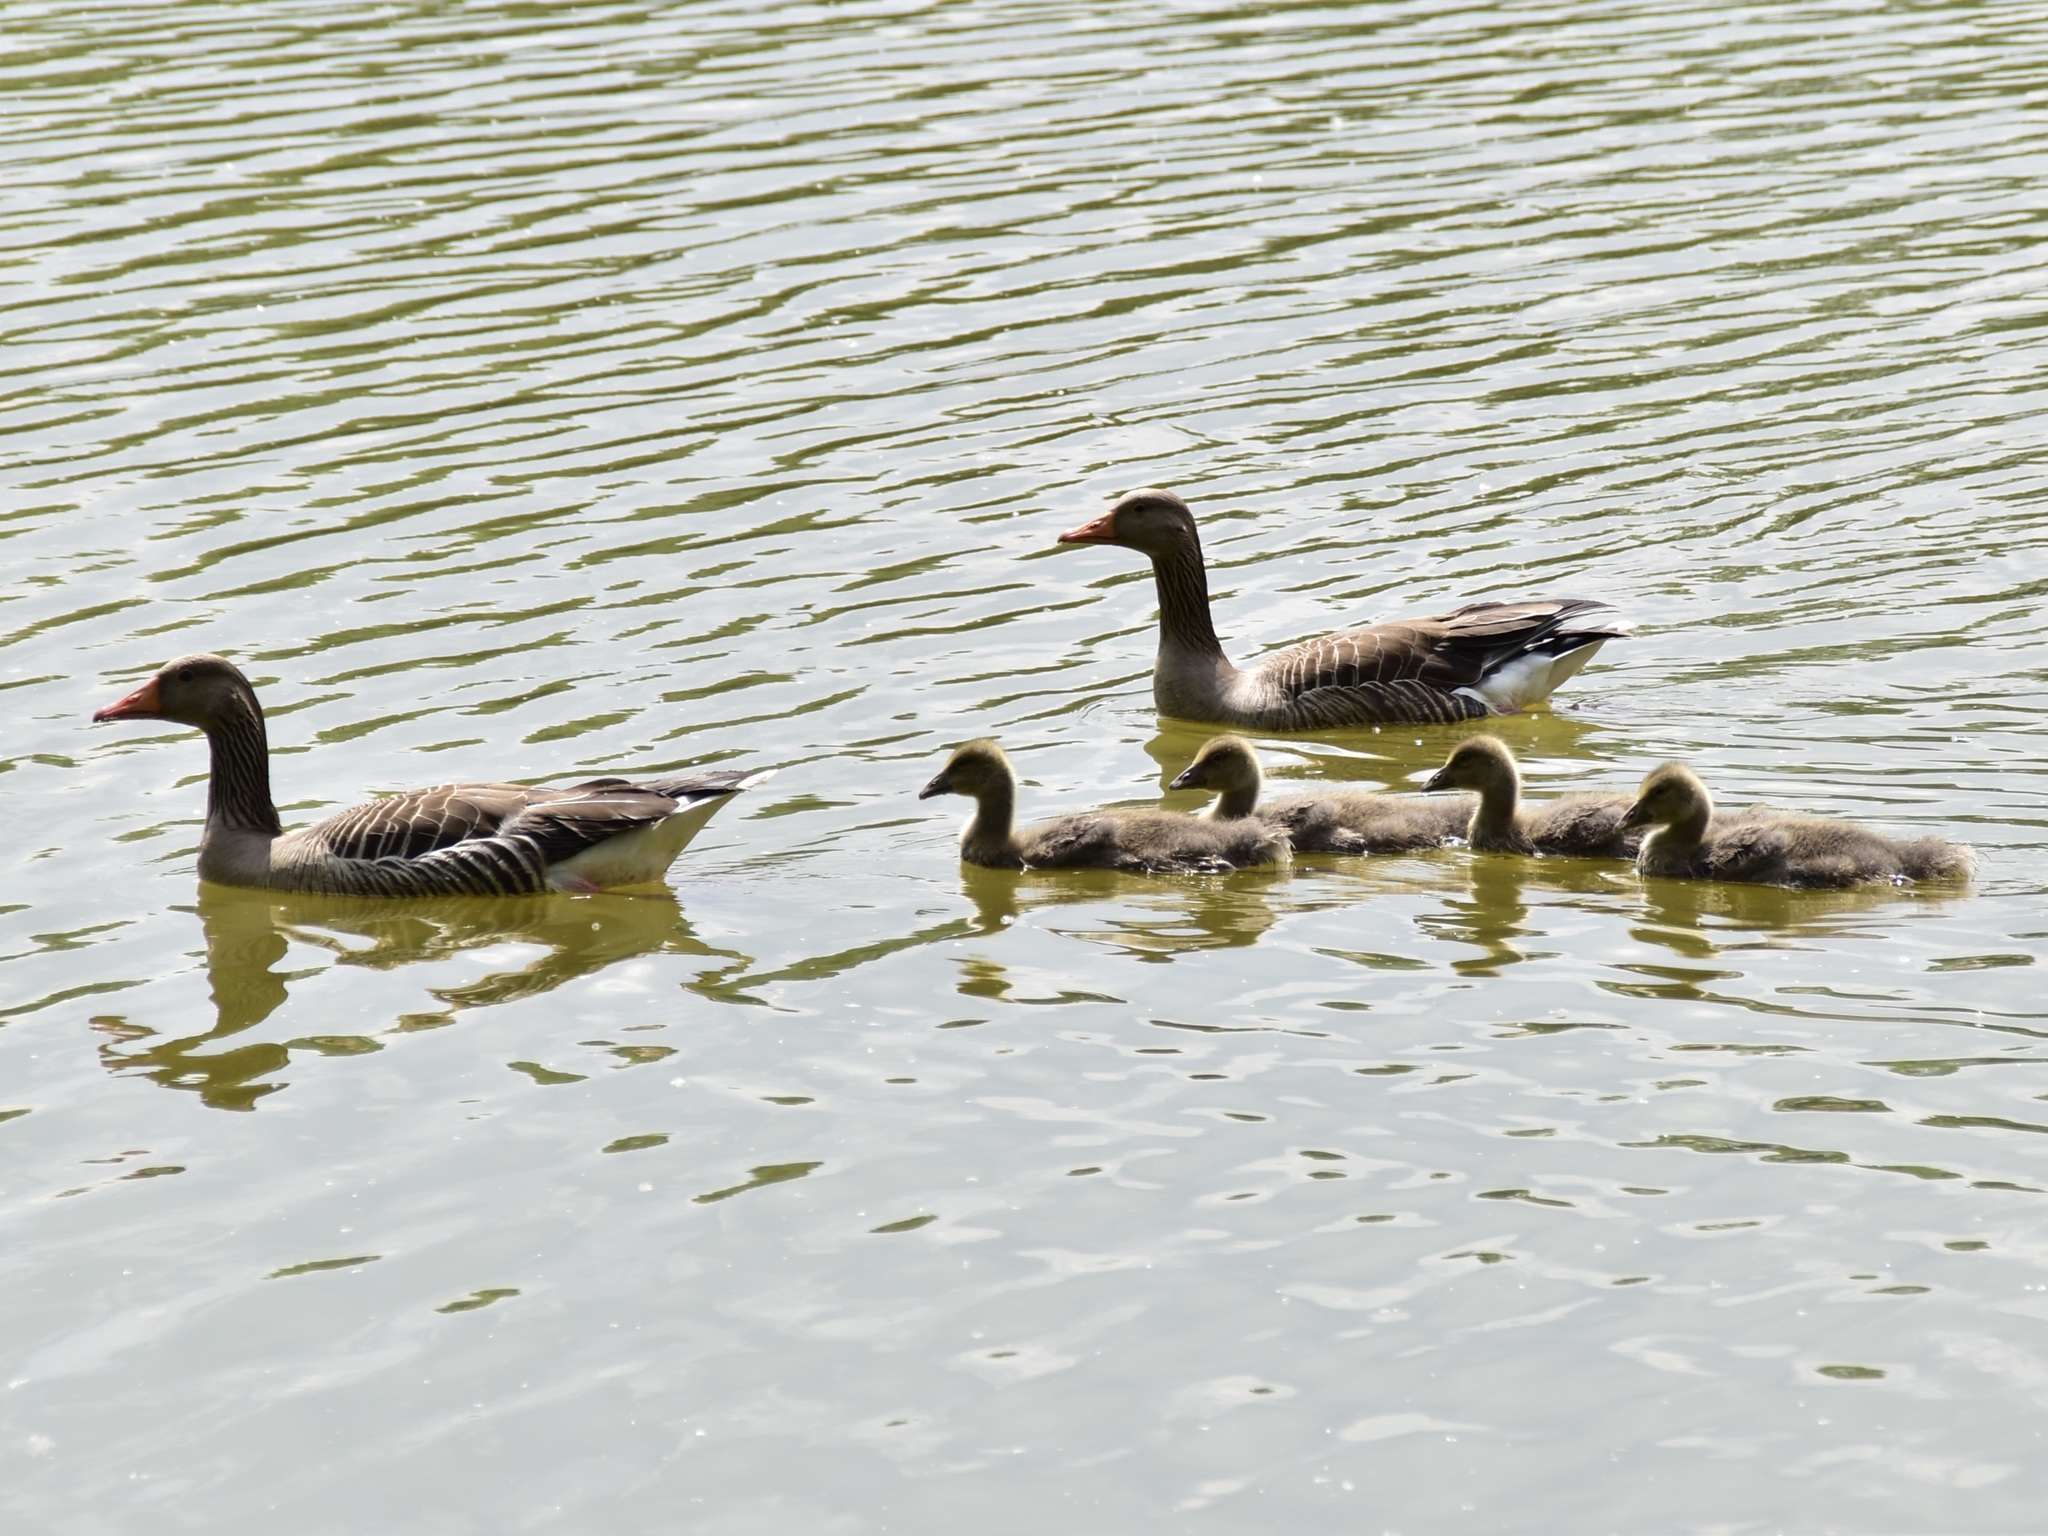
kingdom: Animalia
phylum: Chordata
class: Aves
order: Anseriformes
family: Anatidae
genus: Anser
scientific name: Anser anser
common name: Greylag goose
